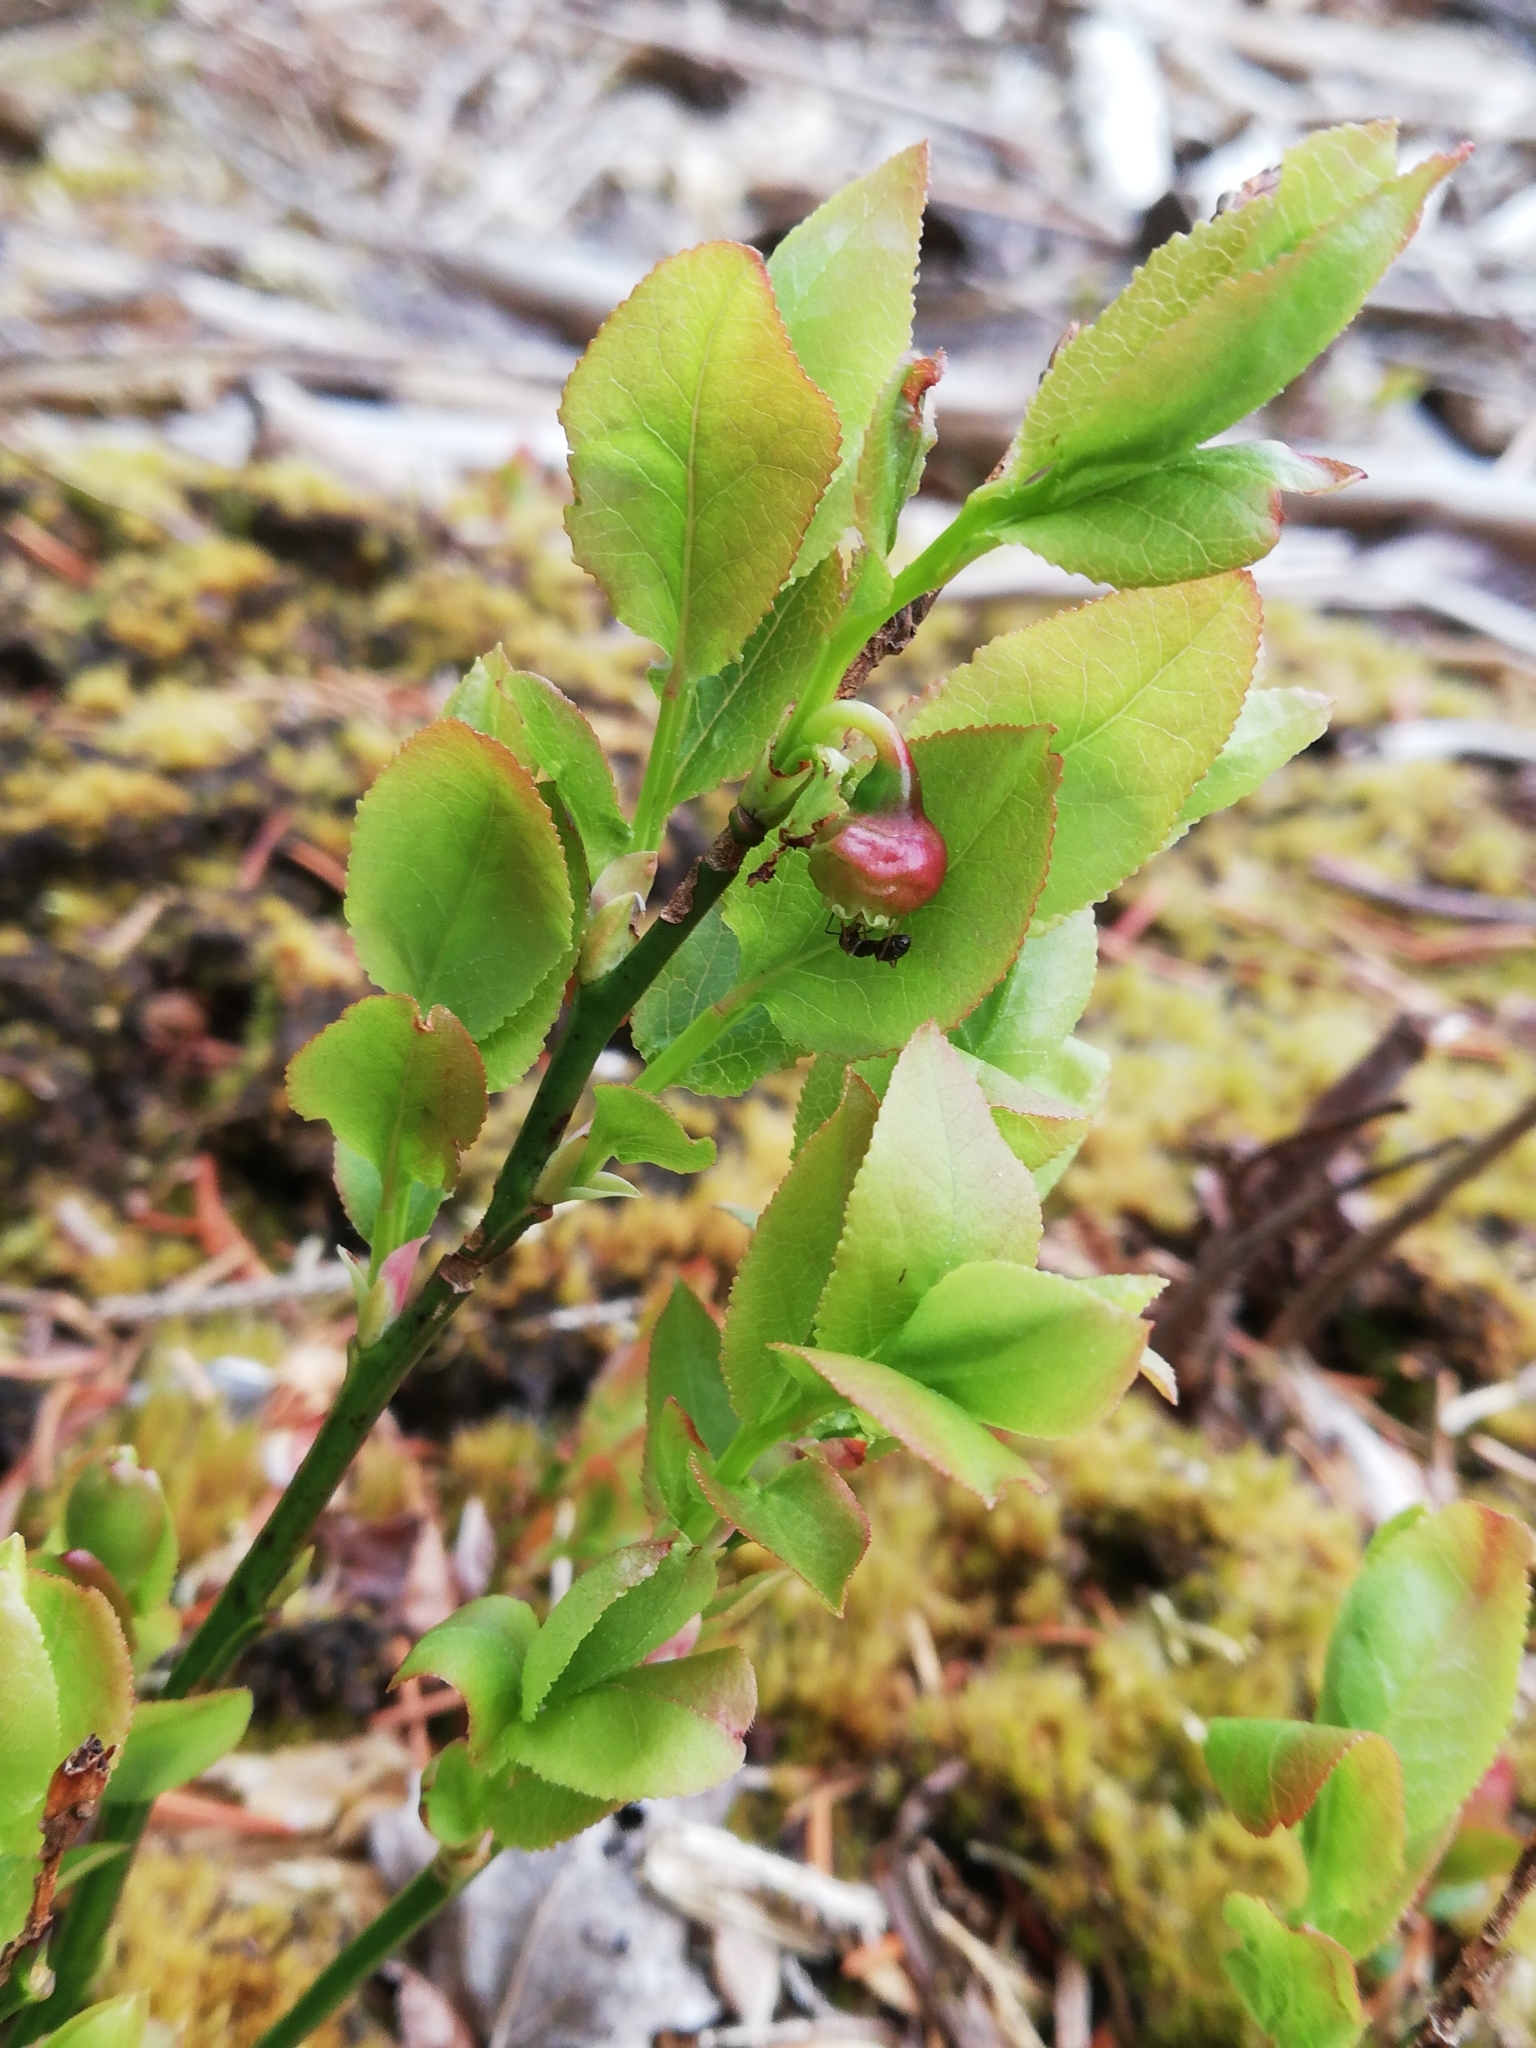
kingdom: Plantae
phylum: Tracheophyta
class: Magnoliopsida
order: Ericales
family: Ericaceae
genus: Vaccinium
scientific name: Vaccinium myrtillus
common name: Bilberry
